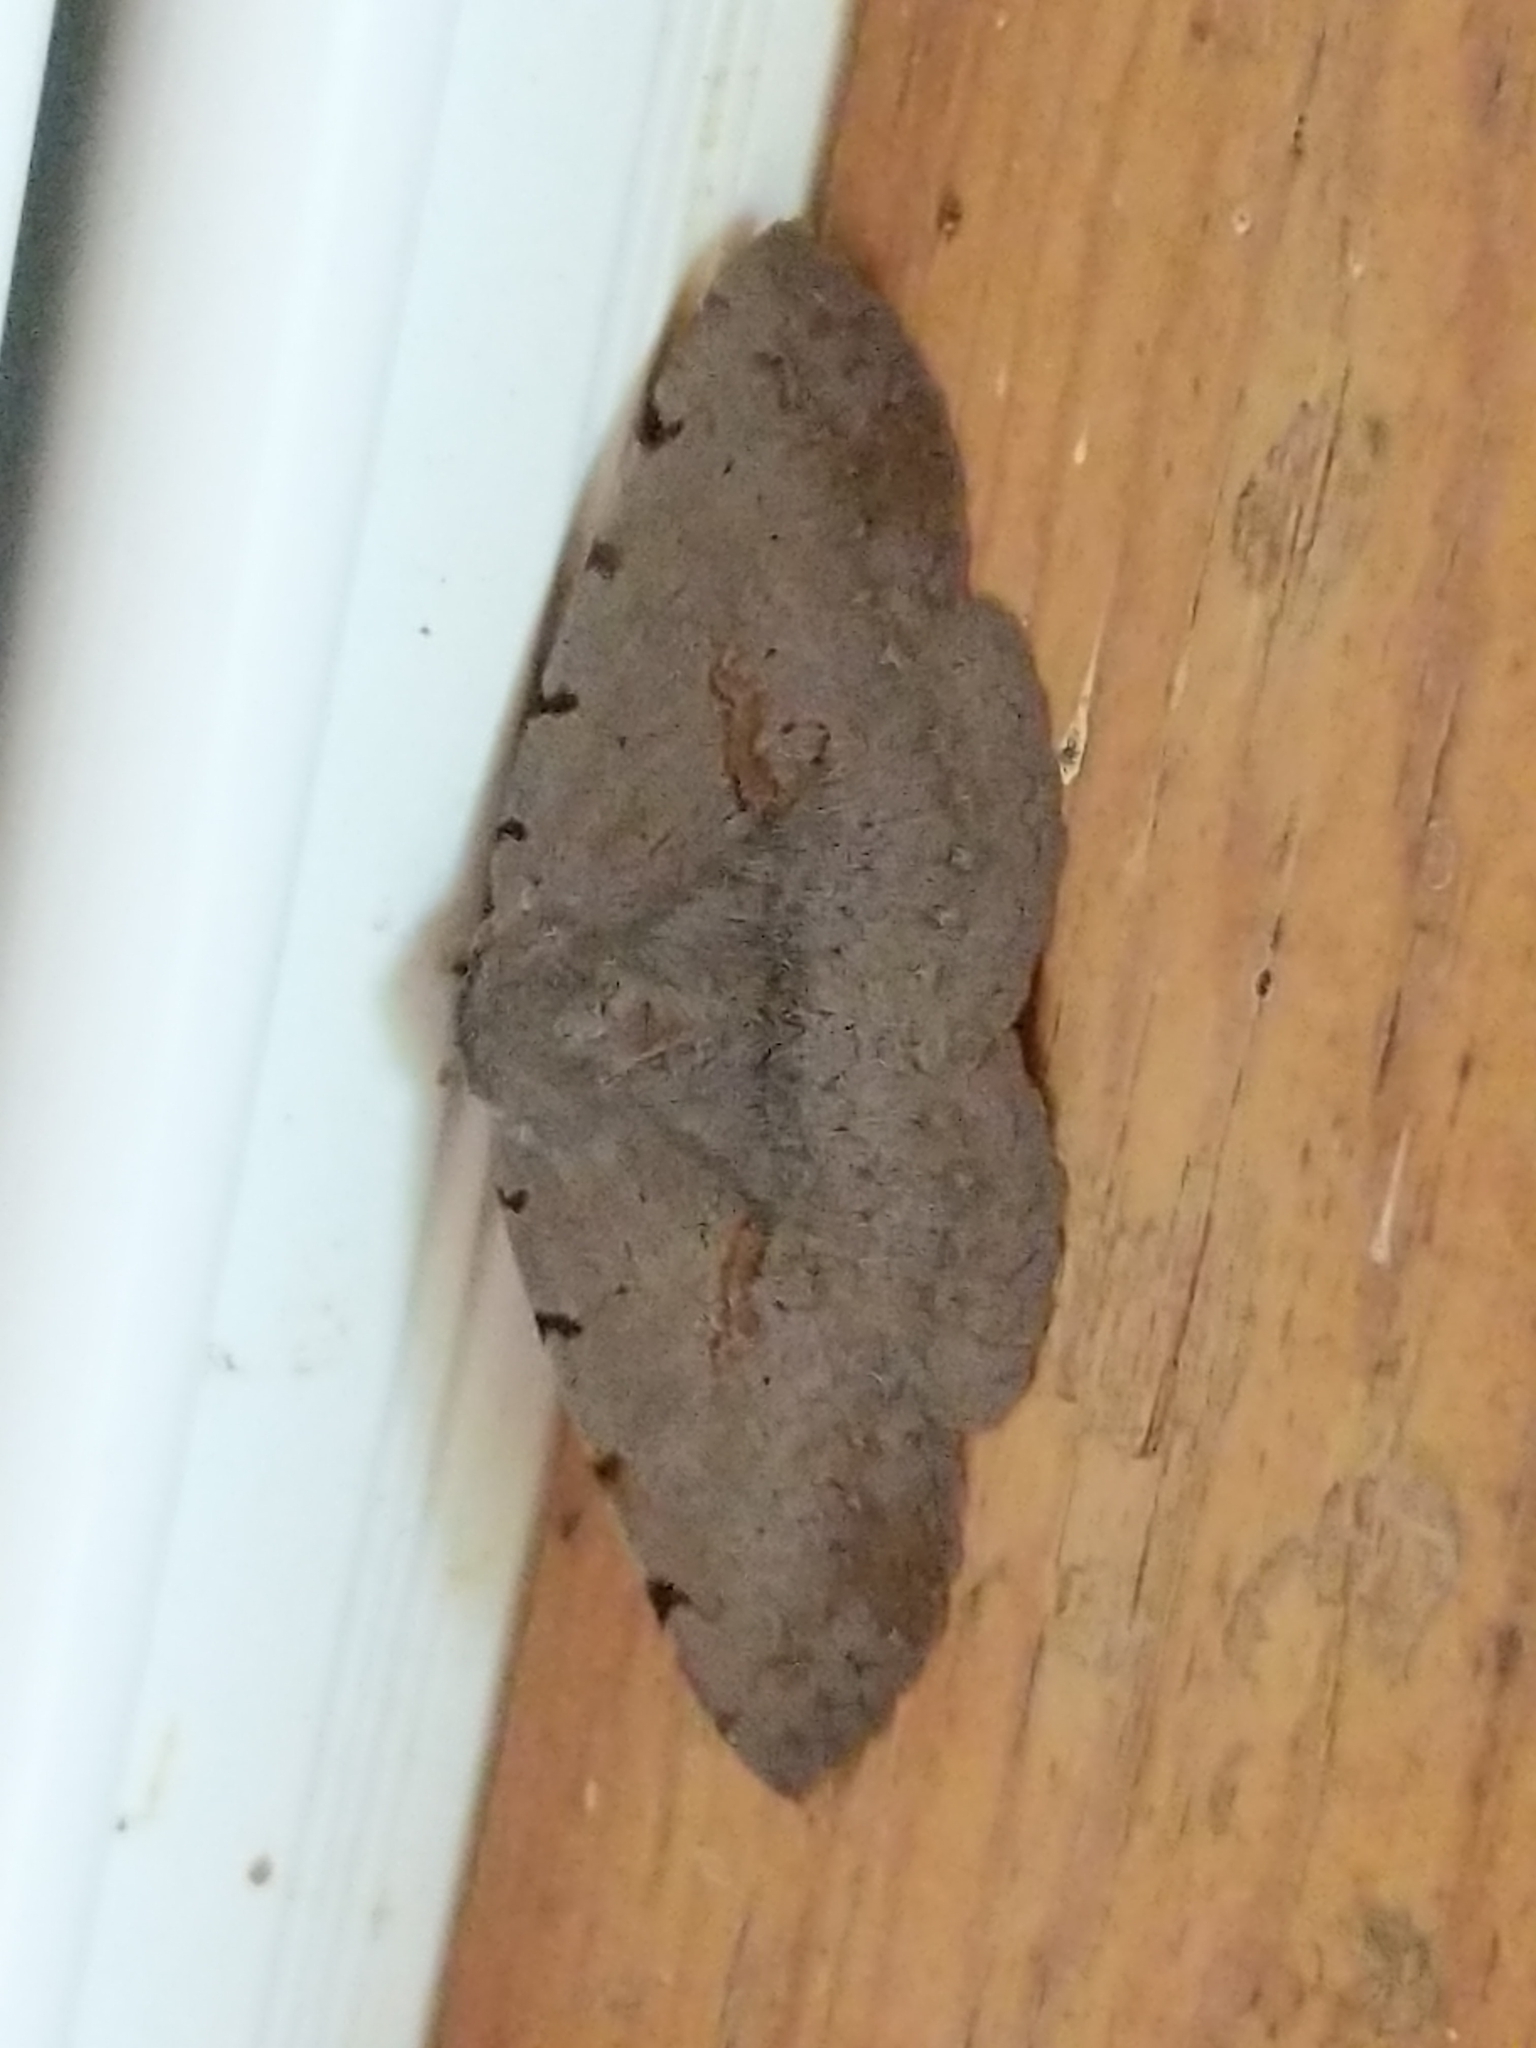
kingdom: Animalia
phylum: Arthropoda
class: Insecta
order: Lepidoptera
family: Erebidae
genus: Spiloloma
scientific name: Spiloloma lunilinea
